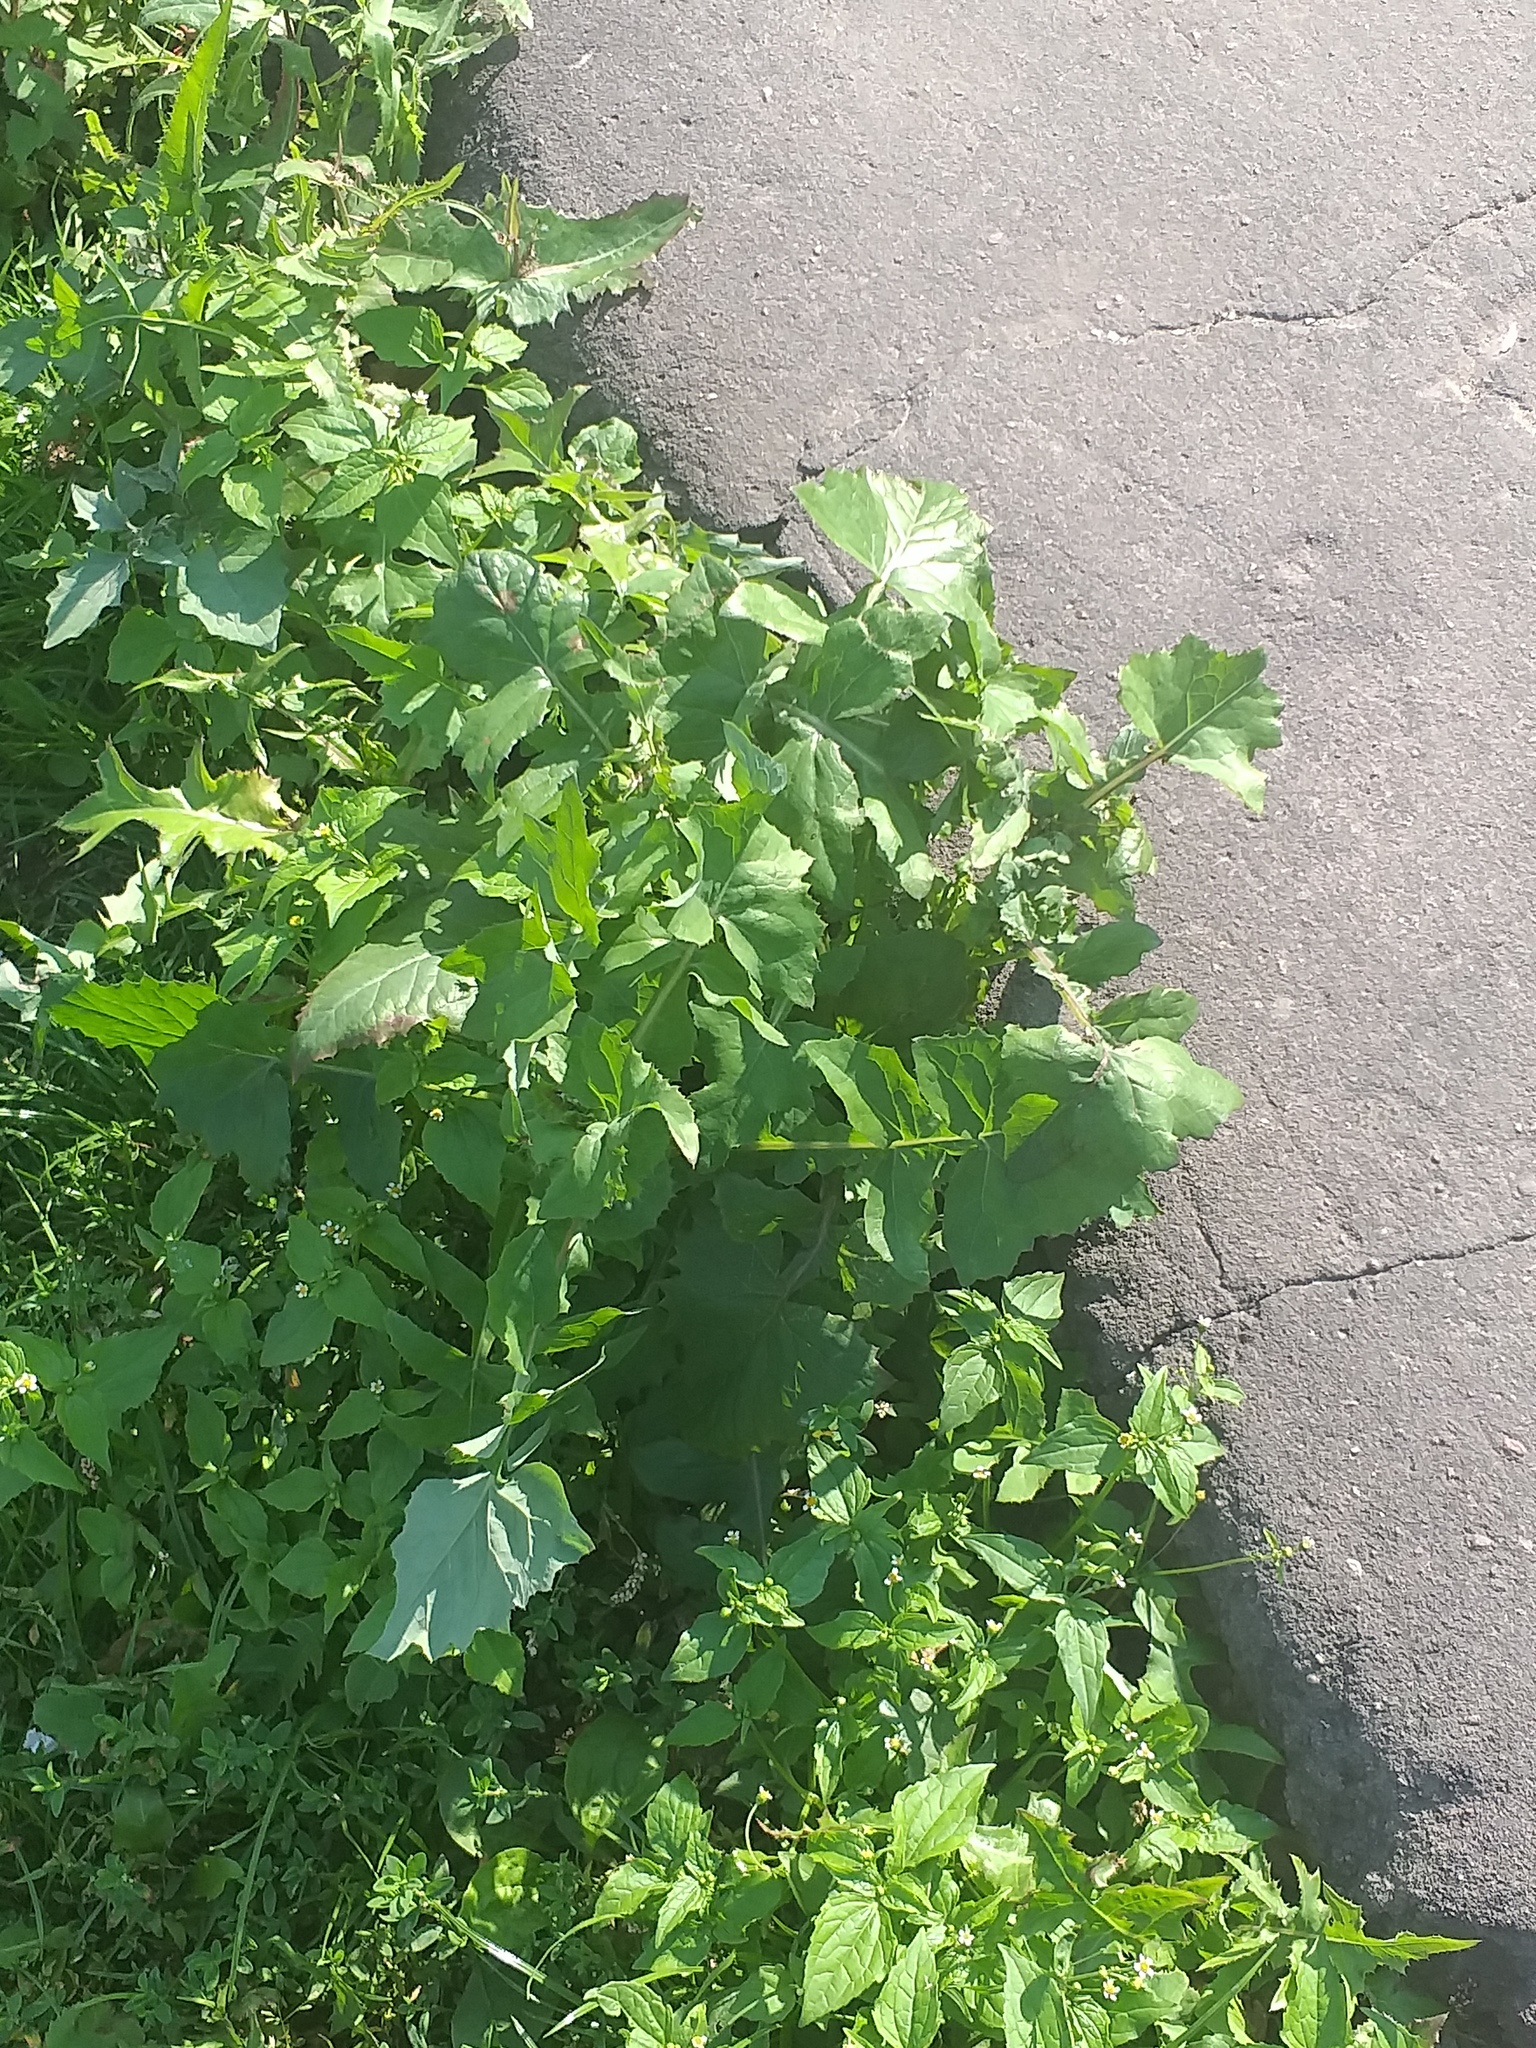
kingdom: Plantae
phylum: Tracheophyta
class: Magnoliopsida
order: Asterales
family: Asteraceae
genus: Sonchus
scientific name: Sonchus oleraceus
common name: Common sowthistle
